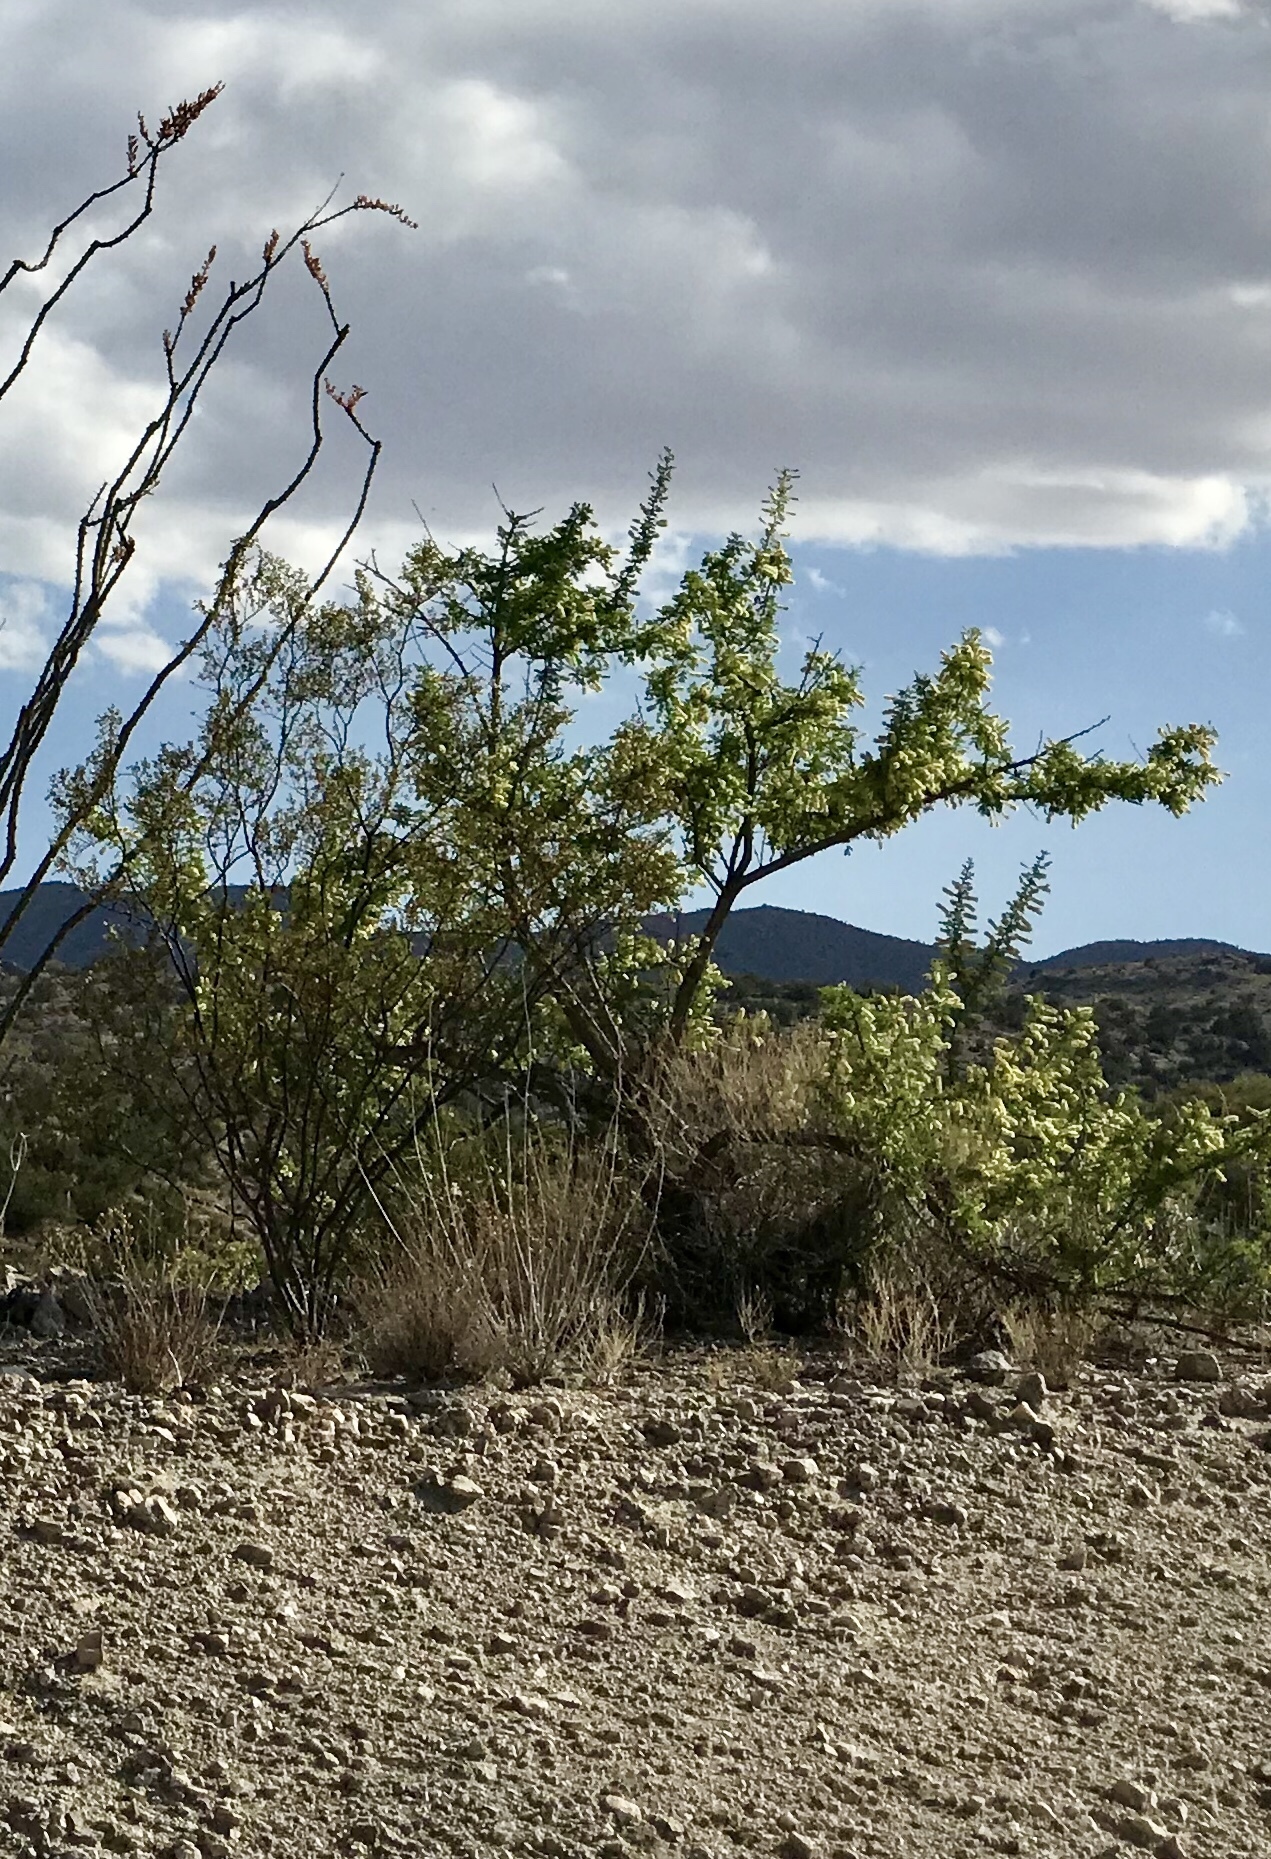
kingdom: Plantae
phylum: Tracheophyta
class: Magnoliopsida
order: Fabales
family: Fabaceae
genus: Senegalia
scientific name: Senegalia greggii
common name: Texas-mimosa
